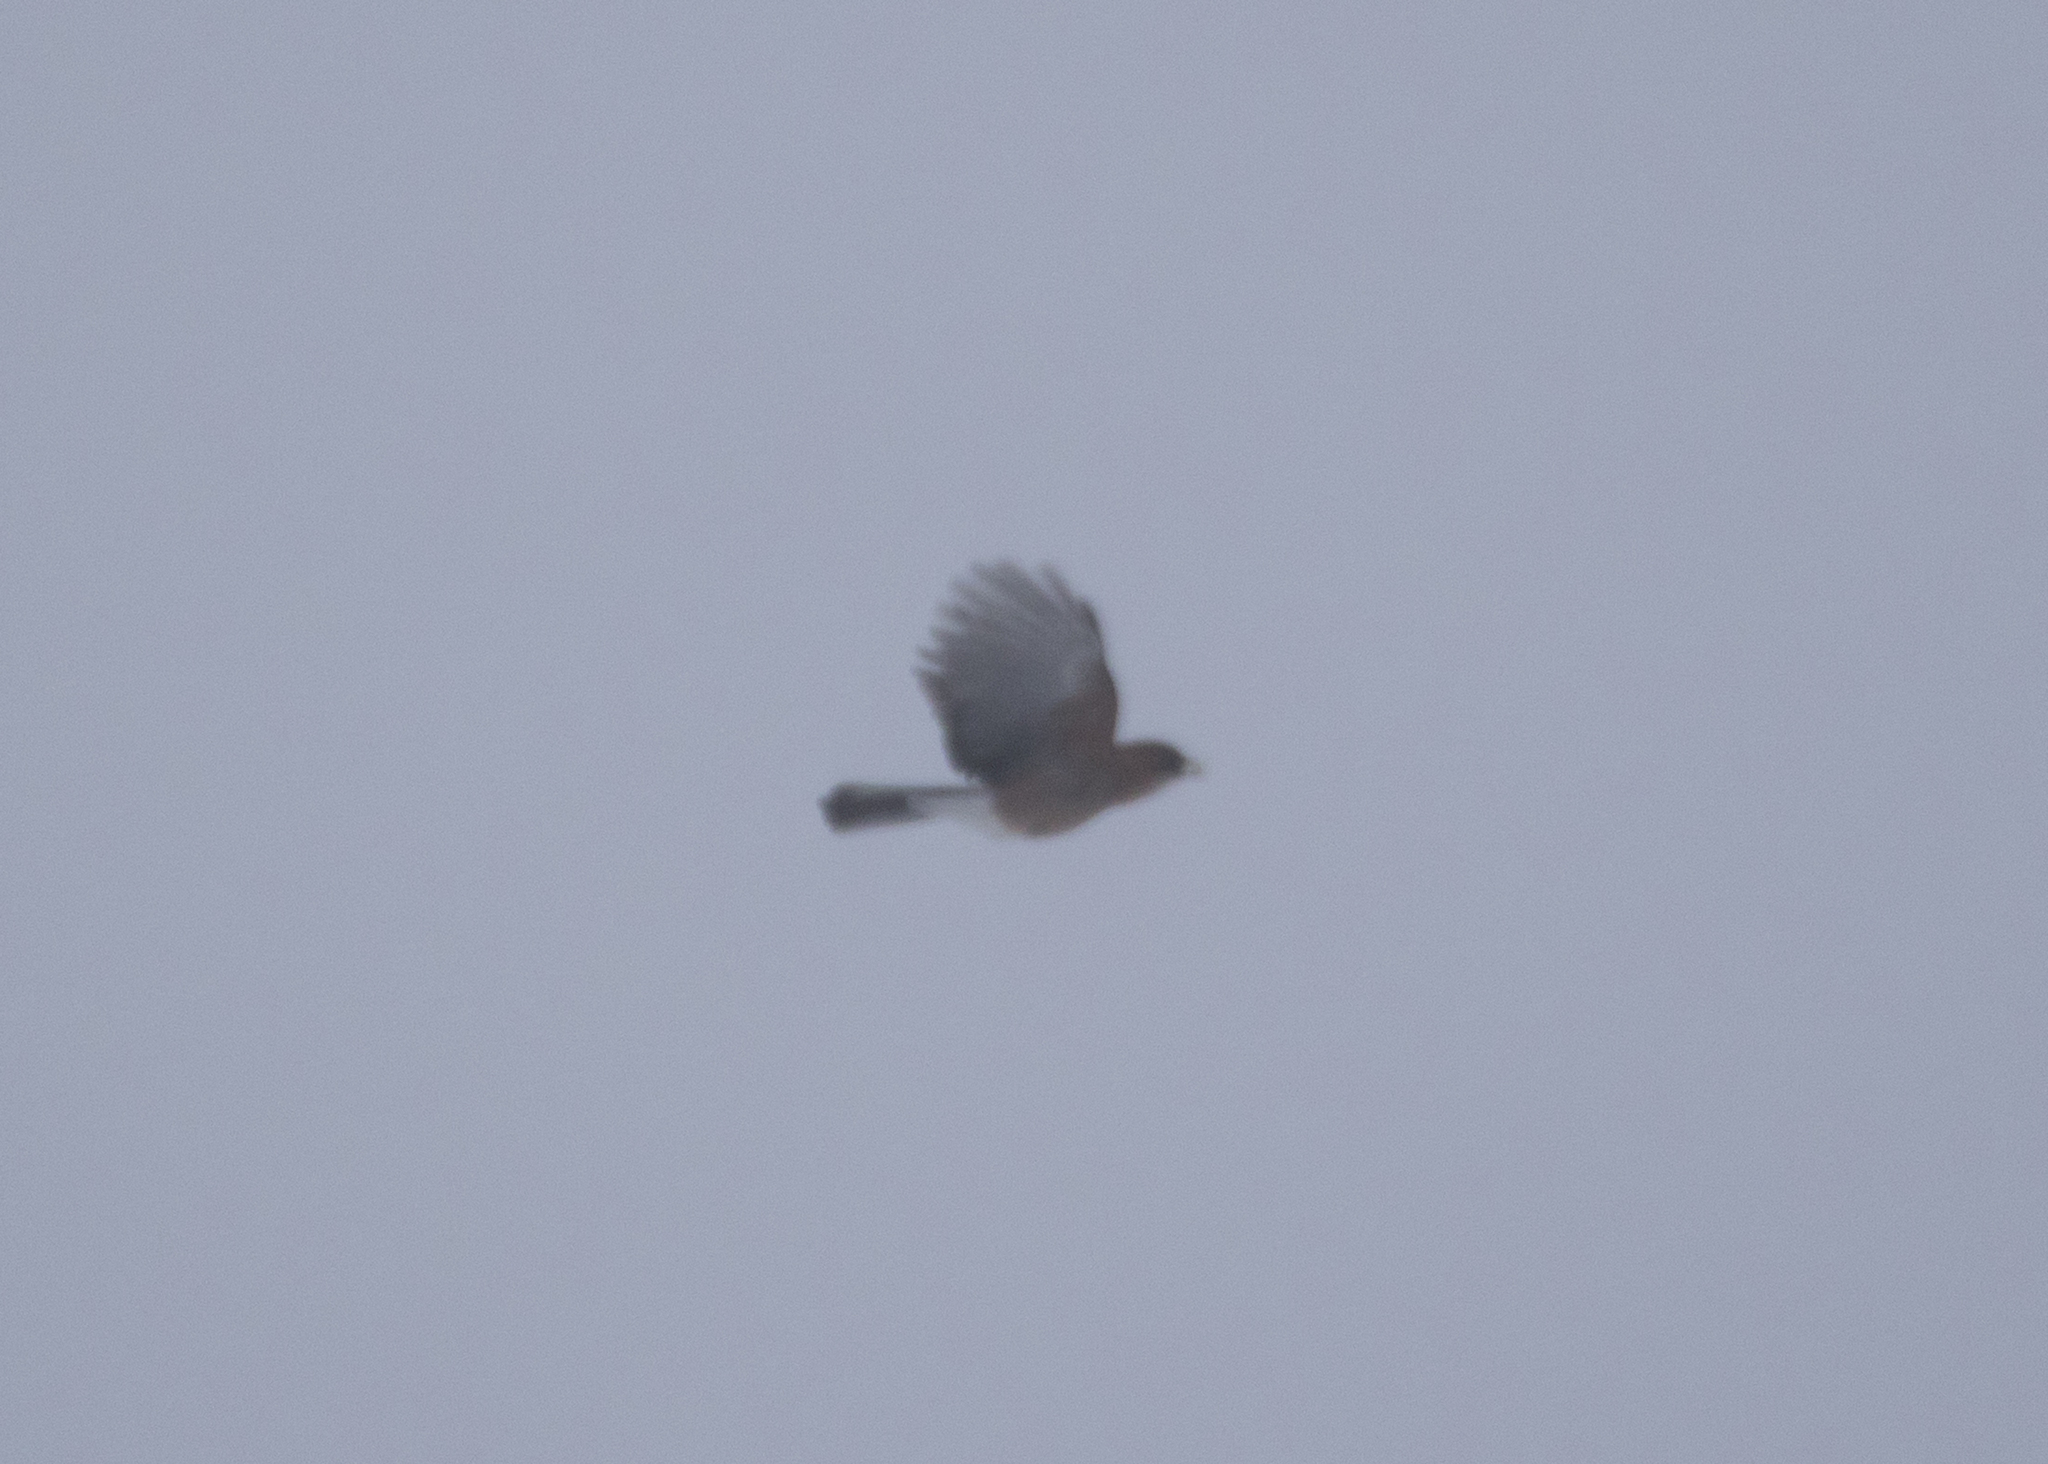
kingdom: Animalia
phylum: Chordata
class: Aves
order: Passeriformes
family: Corvidae
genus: Garrulus
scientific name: Garrulus glandarius
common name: Eurasian jay
